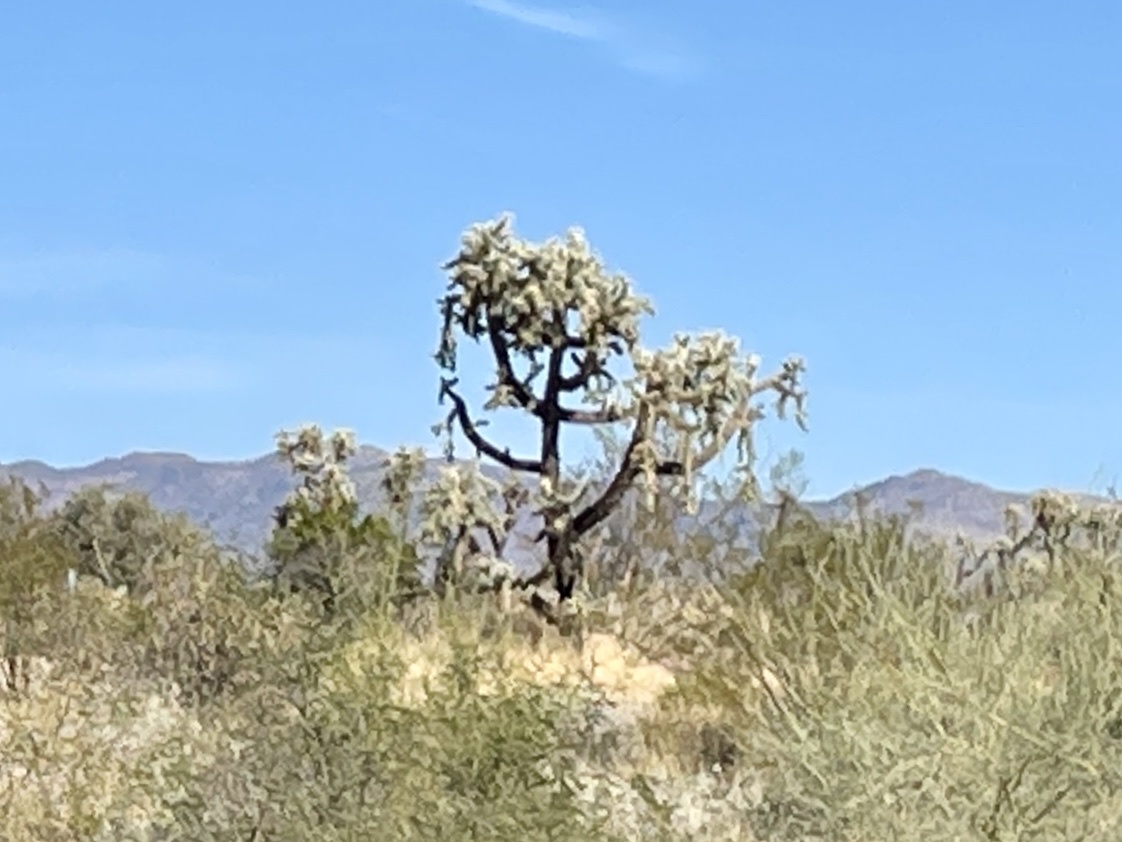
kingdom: Plantae
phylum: Tracheophyta
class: Magnoliopsida
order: Caryophyllales
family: Cactaceae
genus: Cylindropuntia
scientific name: Cylindropuntia fulgida
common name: Jumping cholla
